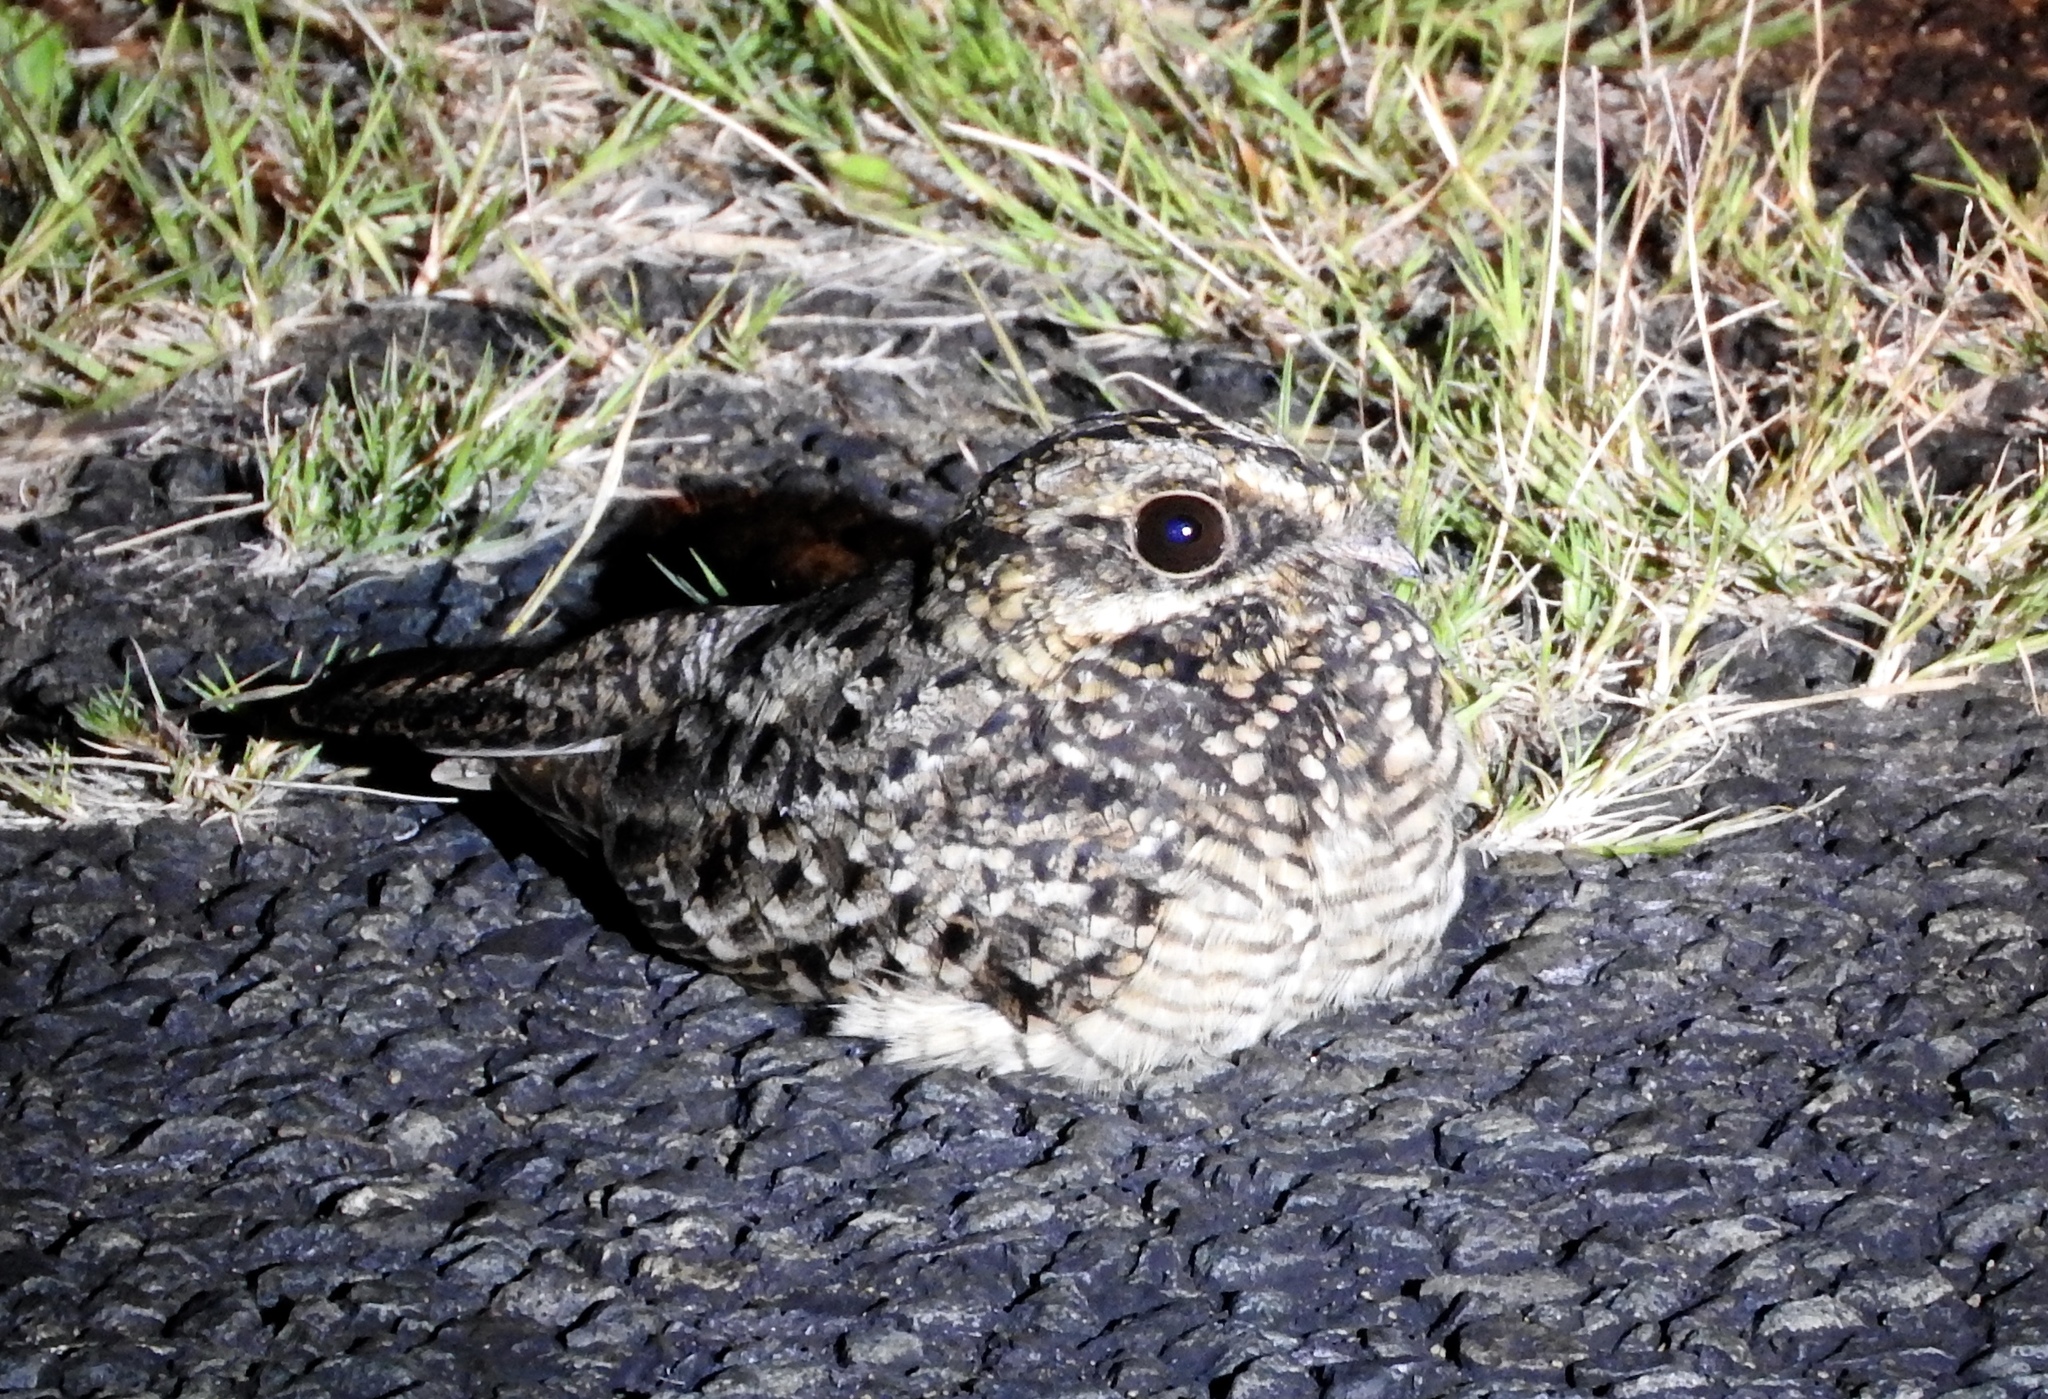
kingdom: Animalia
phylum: Chordata
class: Aves
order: Caprimulgiformes
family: Caprimulgidae
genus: Caprimulgus
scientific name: Caprimulgus natalensis
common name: Swamp nightjar
